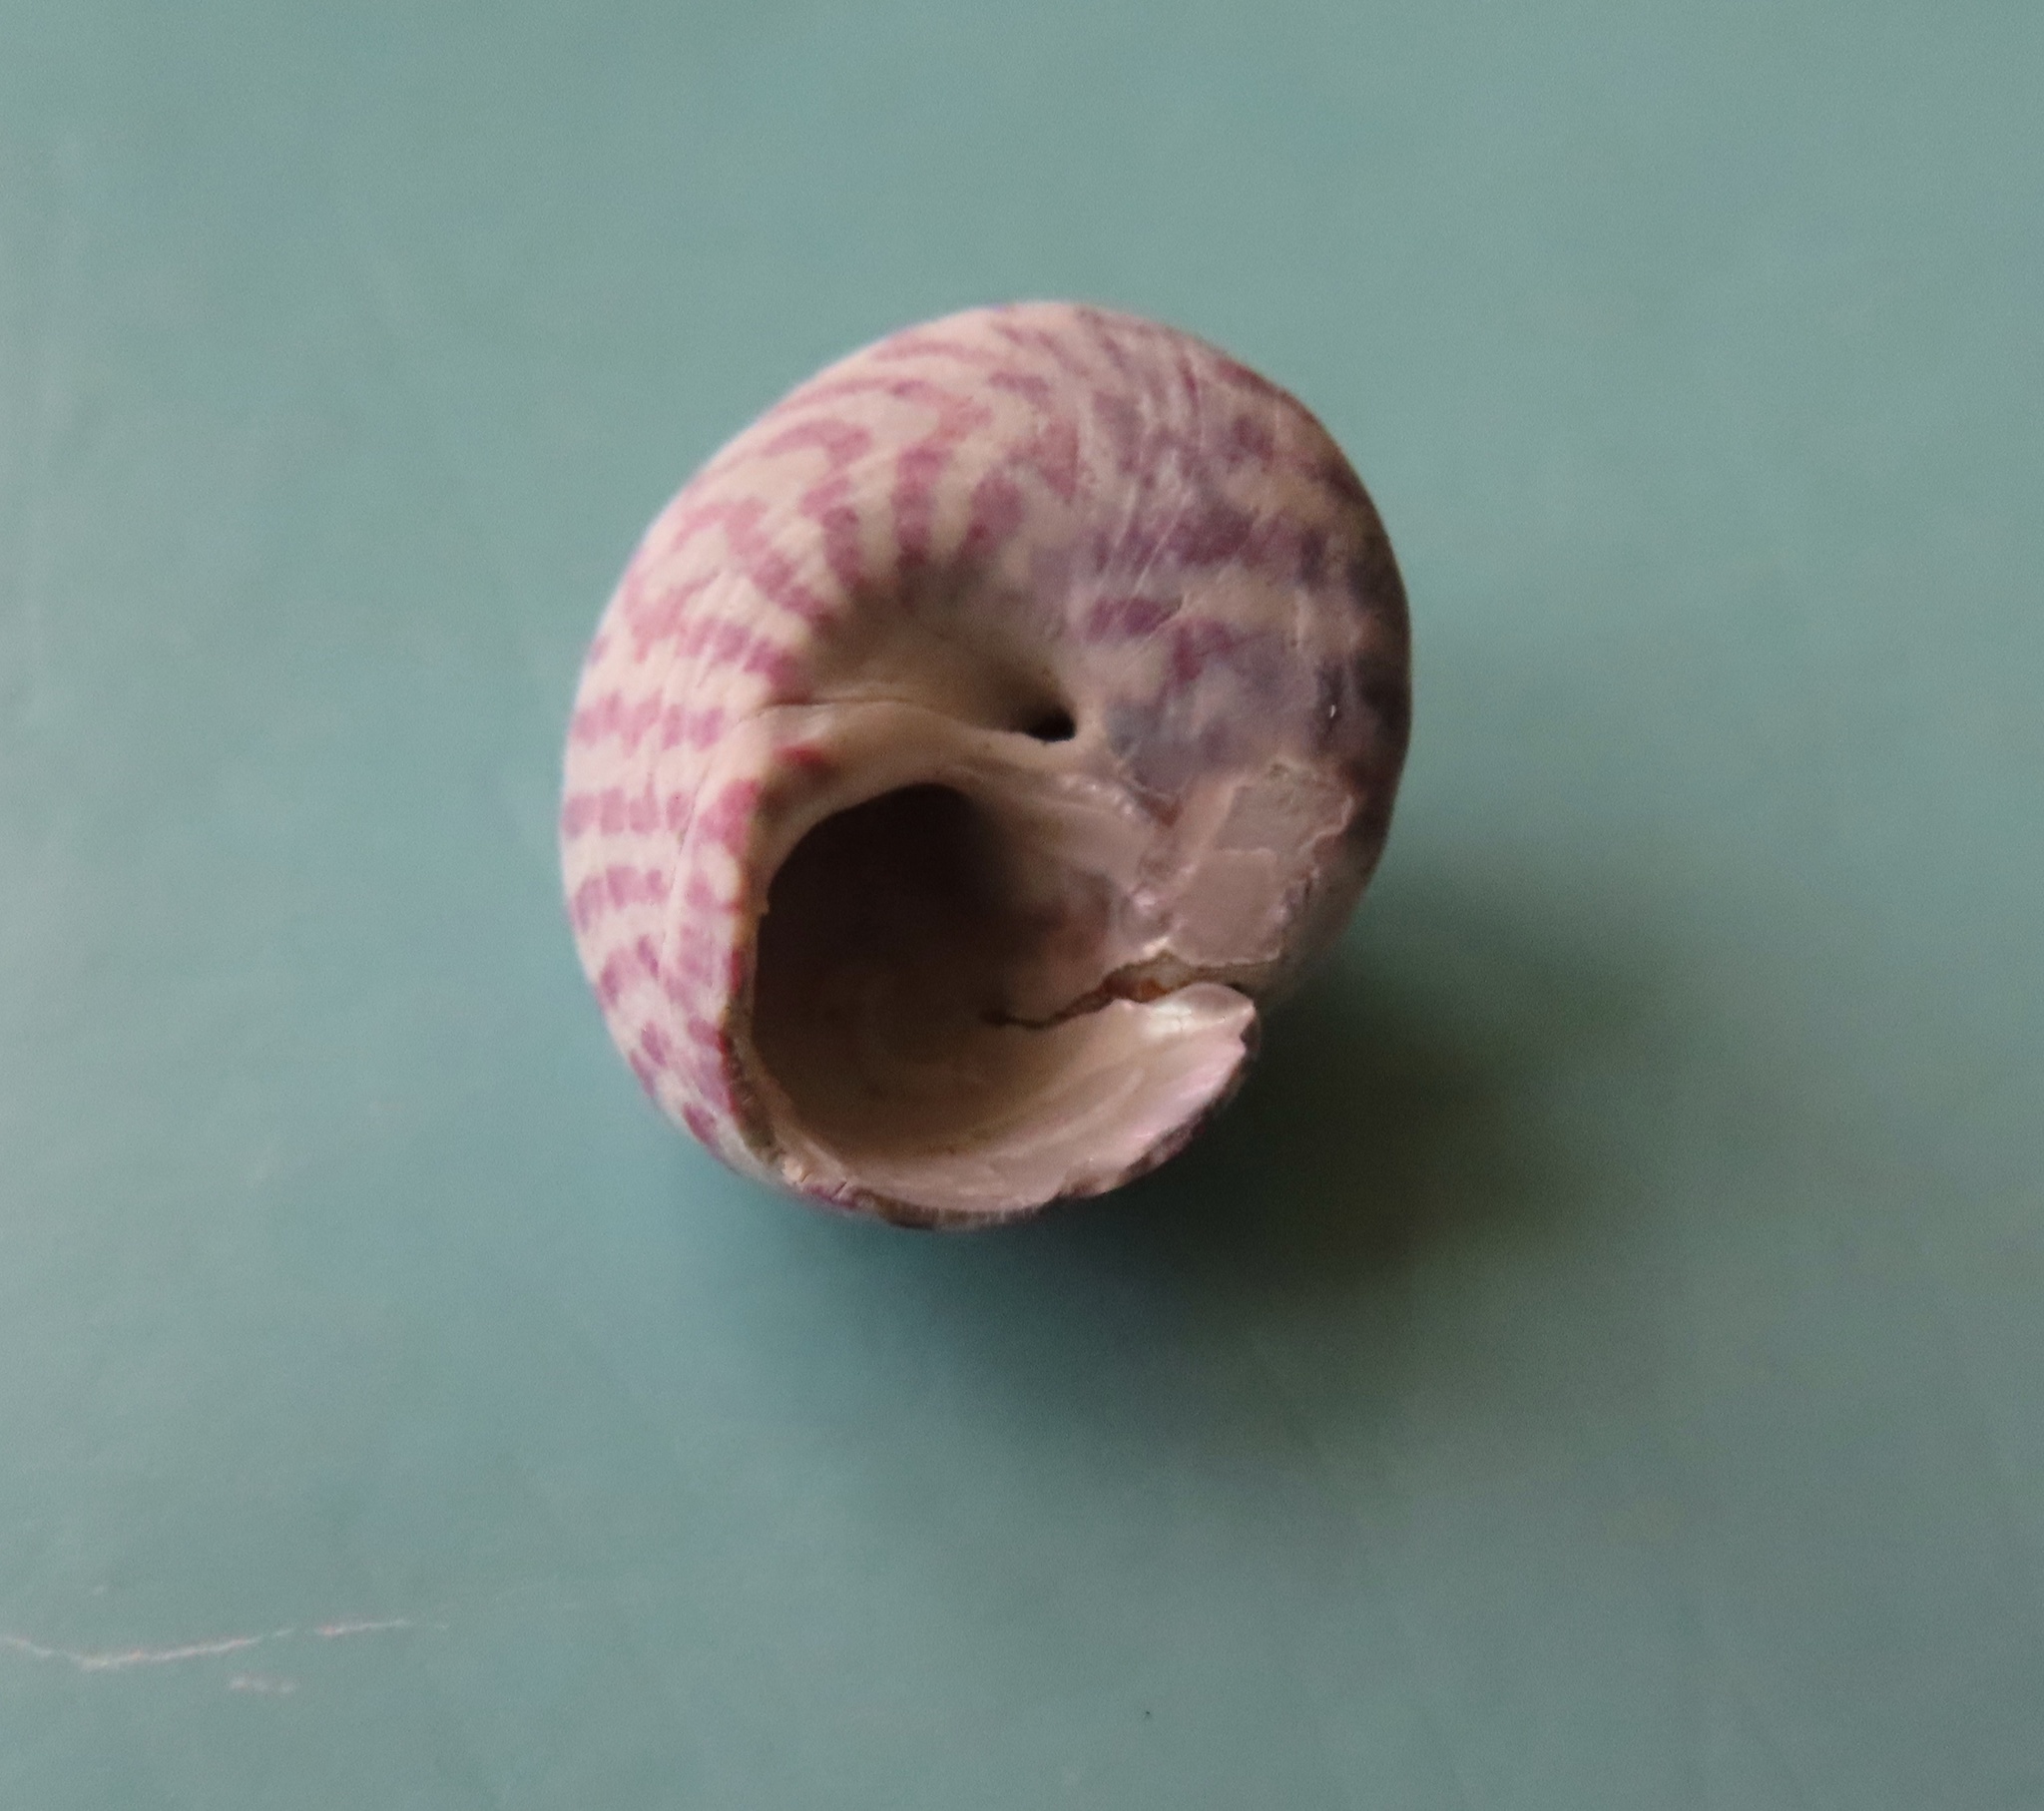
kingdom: Animalia
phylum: Mollusca
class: Gastropoda
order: Trochida
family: Trochidae
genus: Steromphala
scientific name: Steromphala umbilicalis
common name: Flat top shell
